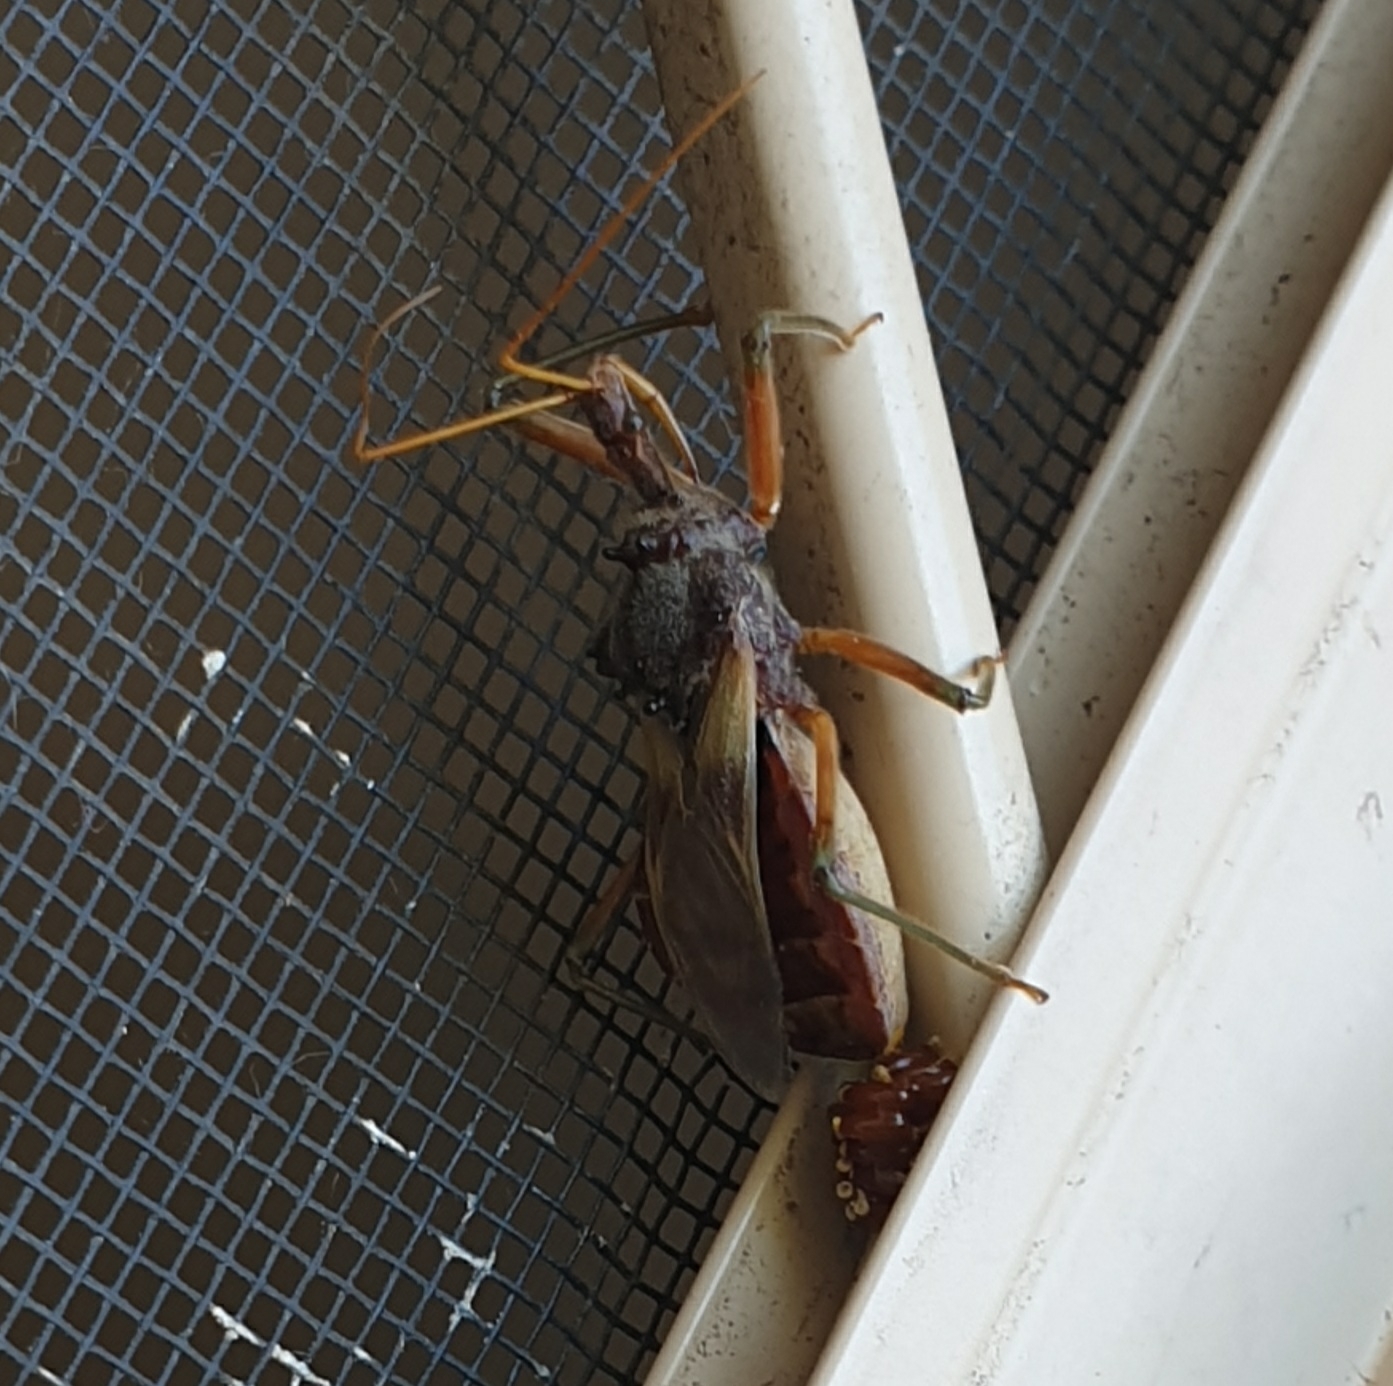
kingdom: Animalia
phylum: Arthropoda
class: Insecta
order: Hemiptera
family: Reduviidae
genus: Pristhesancus
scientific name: Pristhesancus plagipennis
